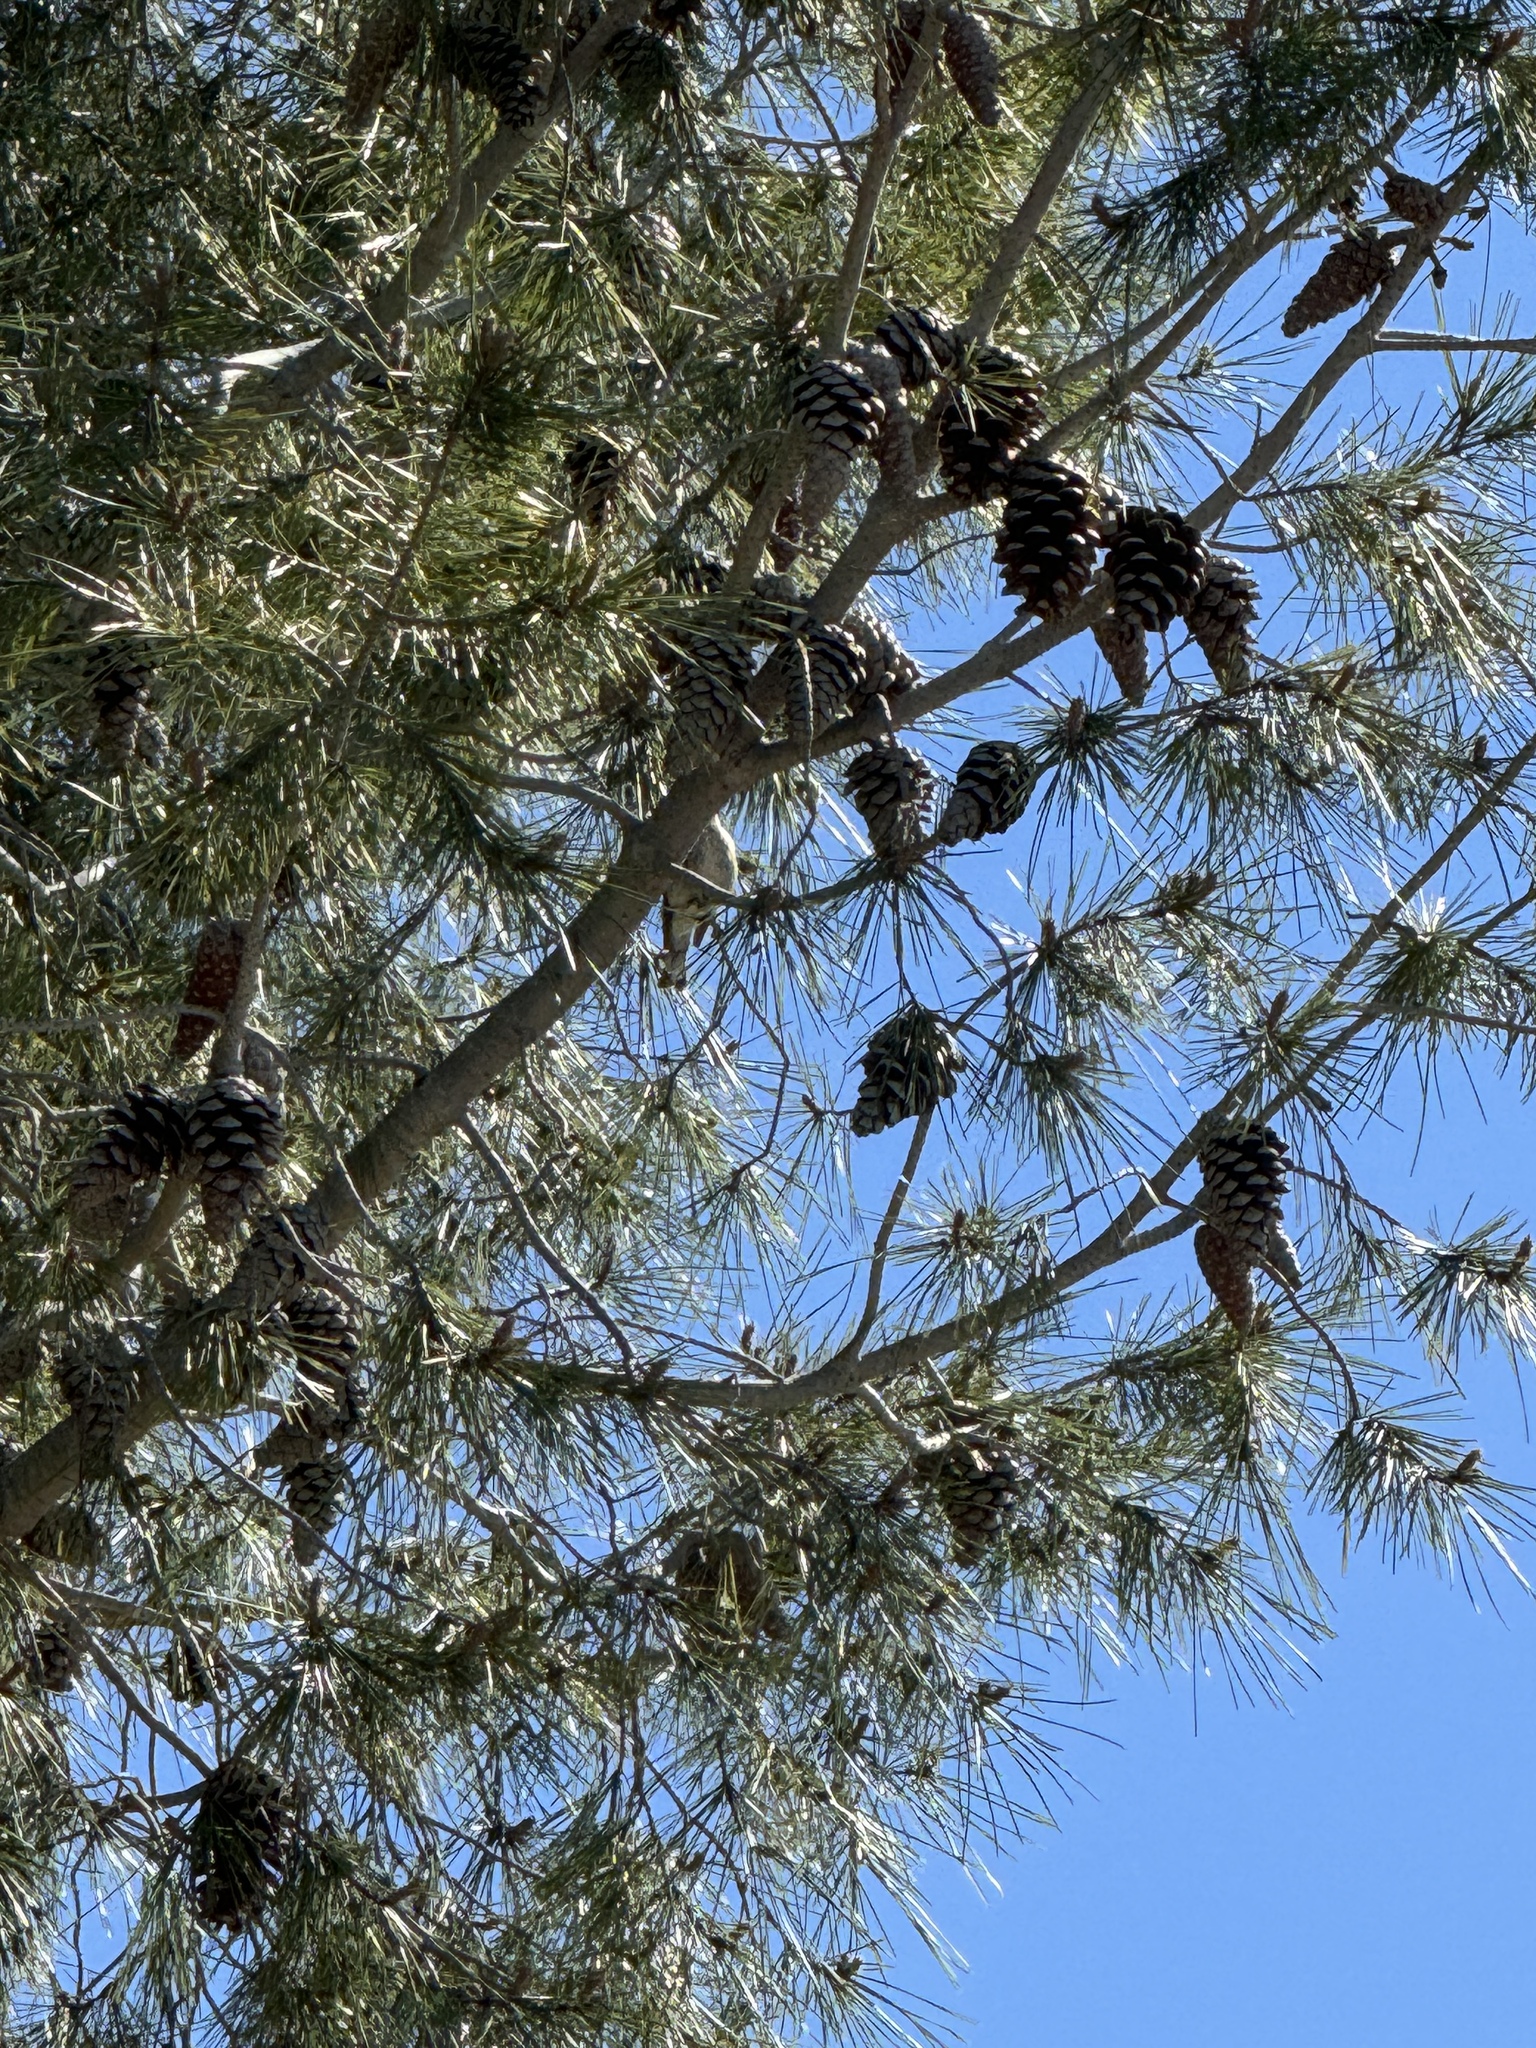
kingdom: Animalia
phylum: Chordata
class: Aves
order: Passeriformes
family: Parulidae
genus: Setophaga
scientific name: Setophaga auduboni
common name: Audubon's warbler
